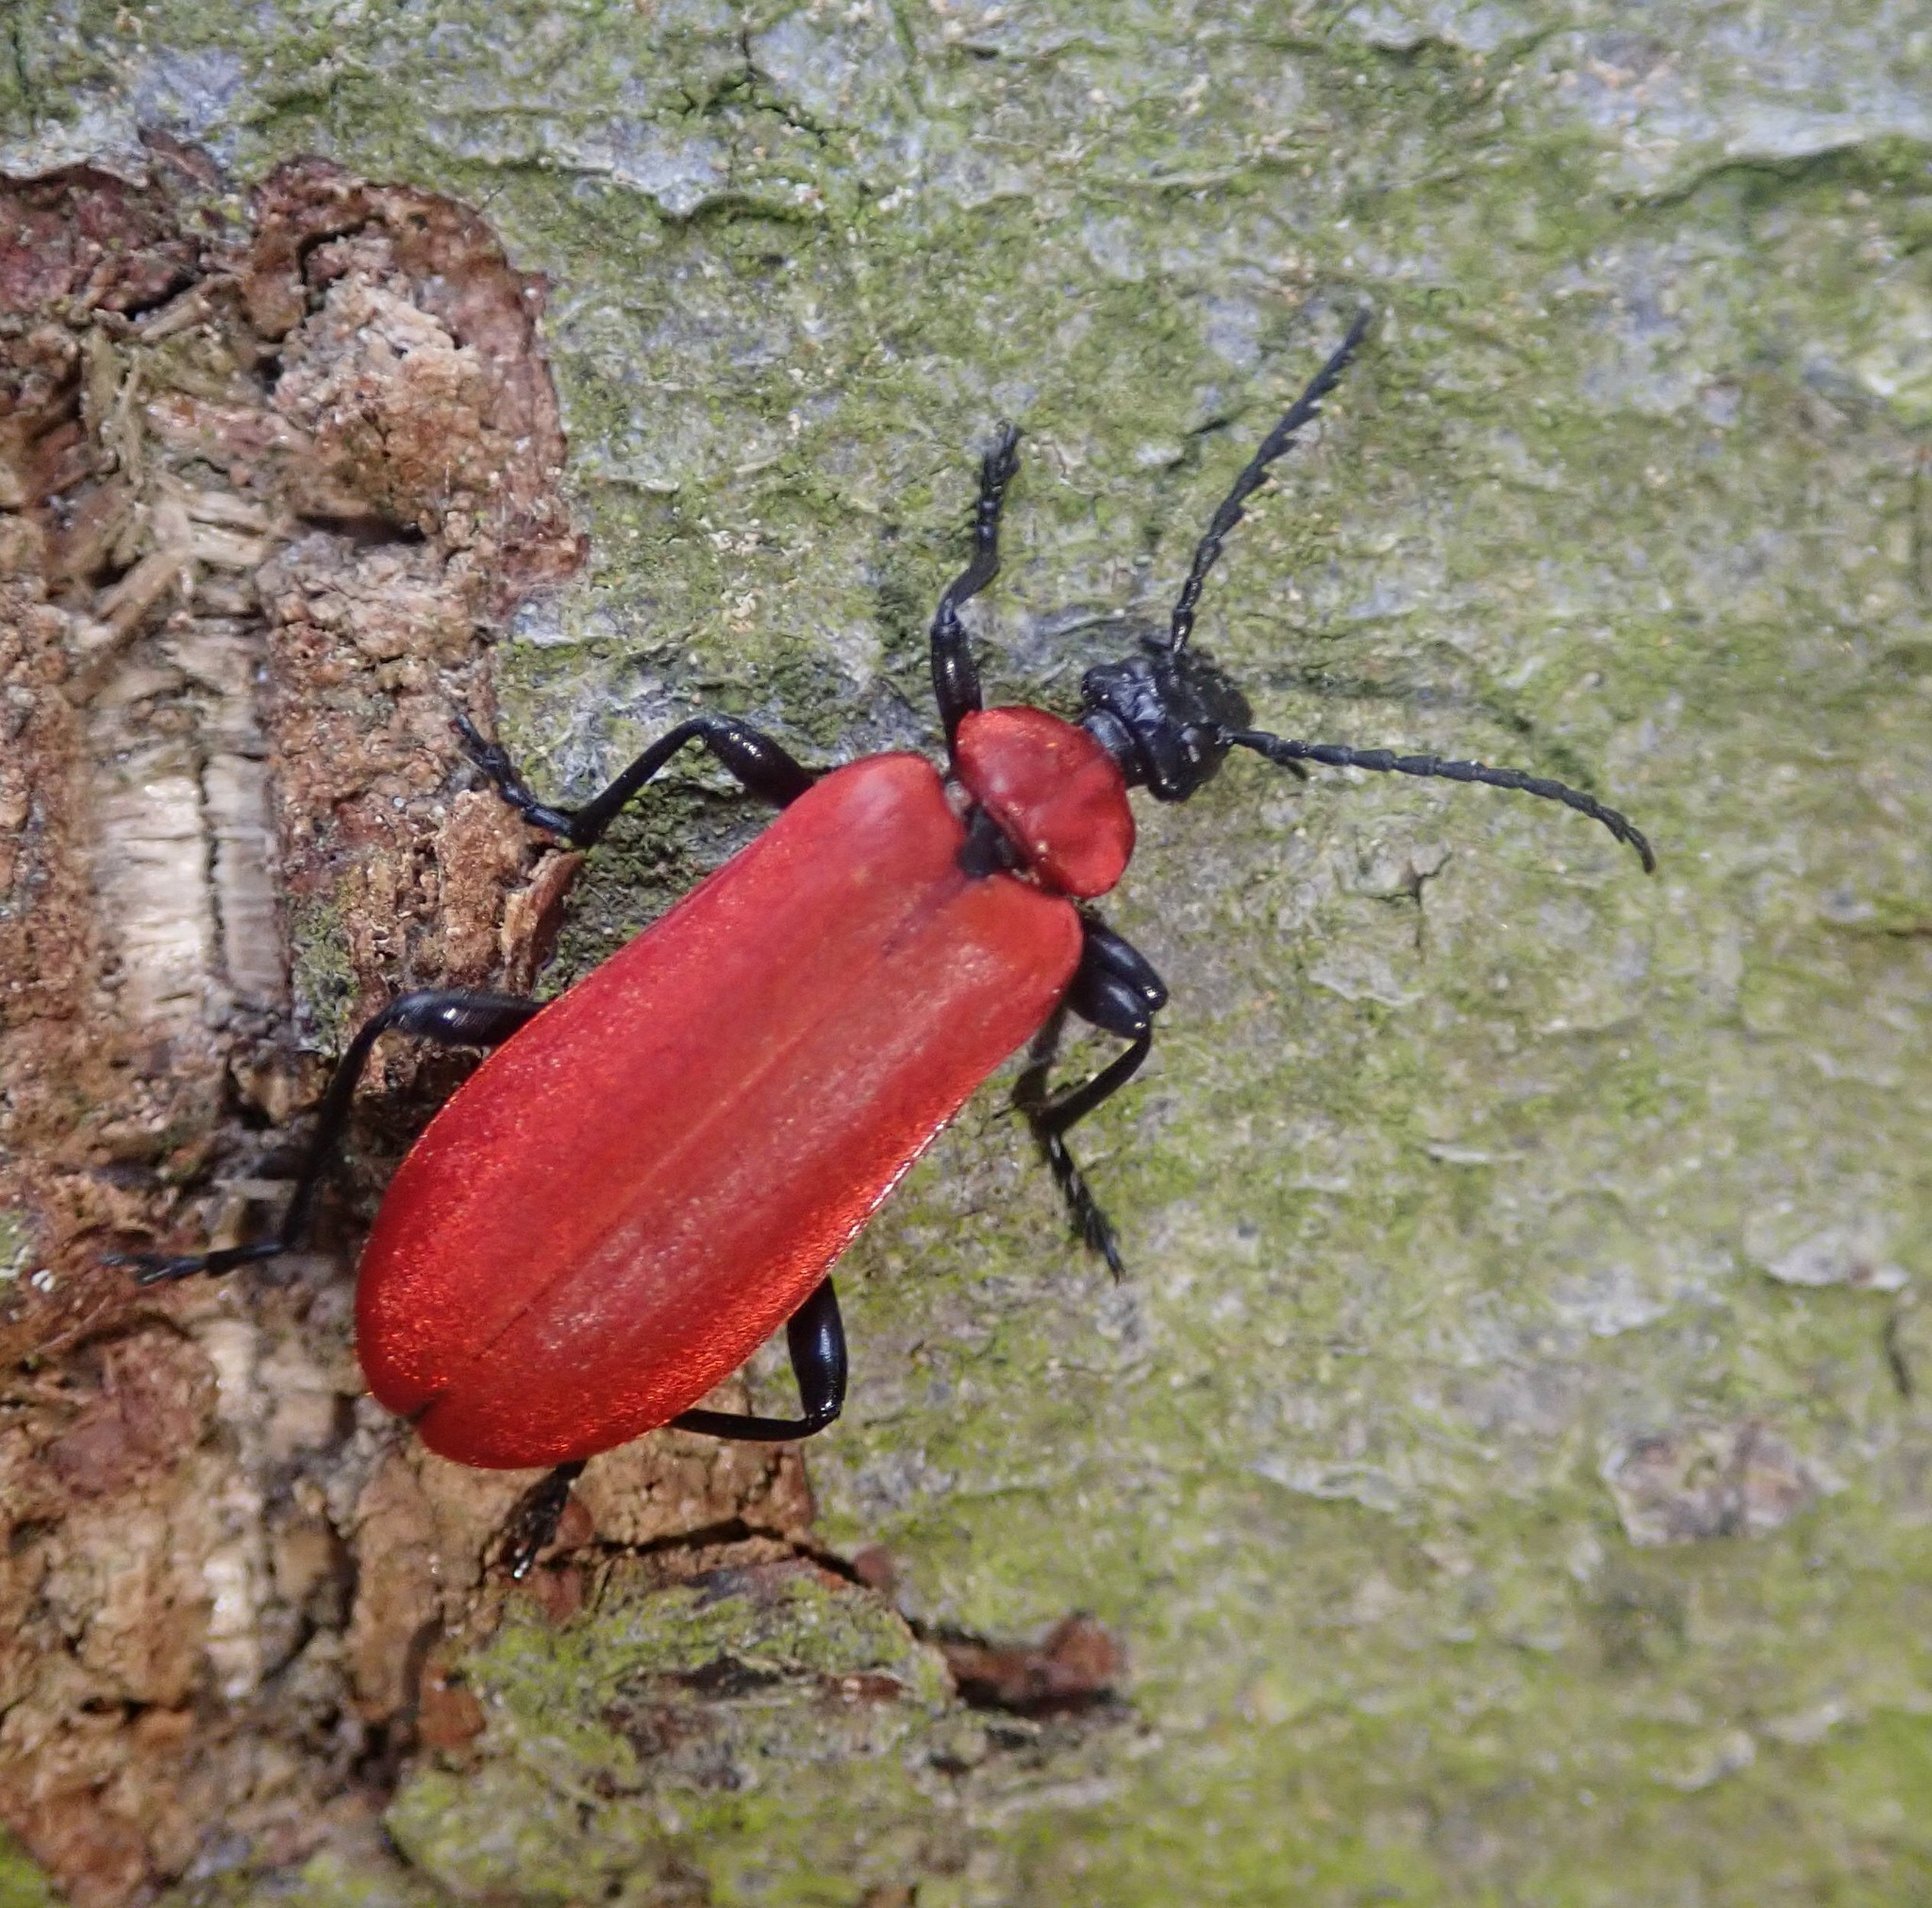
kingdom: Animalia
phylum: Arthropoda
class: Insecta
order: Coleoptera
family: Pyrochroidae
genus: Pyrochroa
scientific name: Pyrochroa coccinea
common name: Black-headed cardinal beetle
